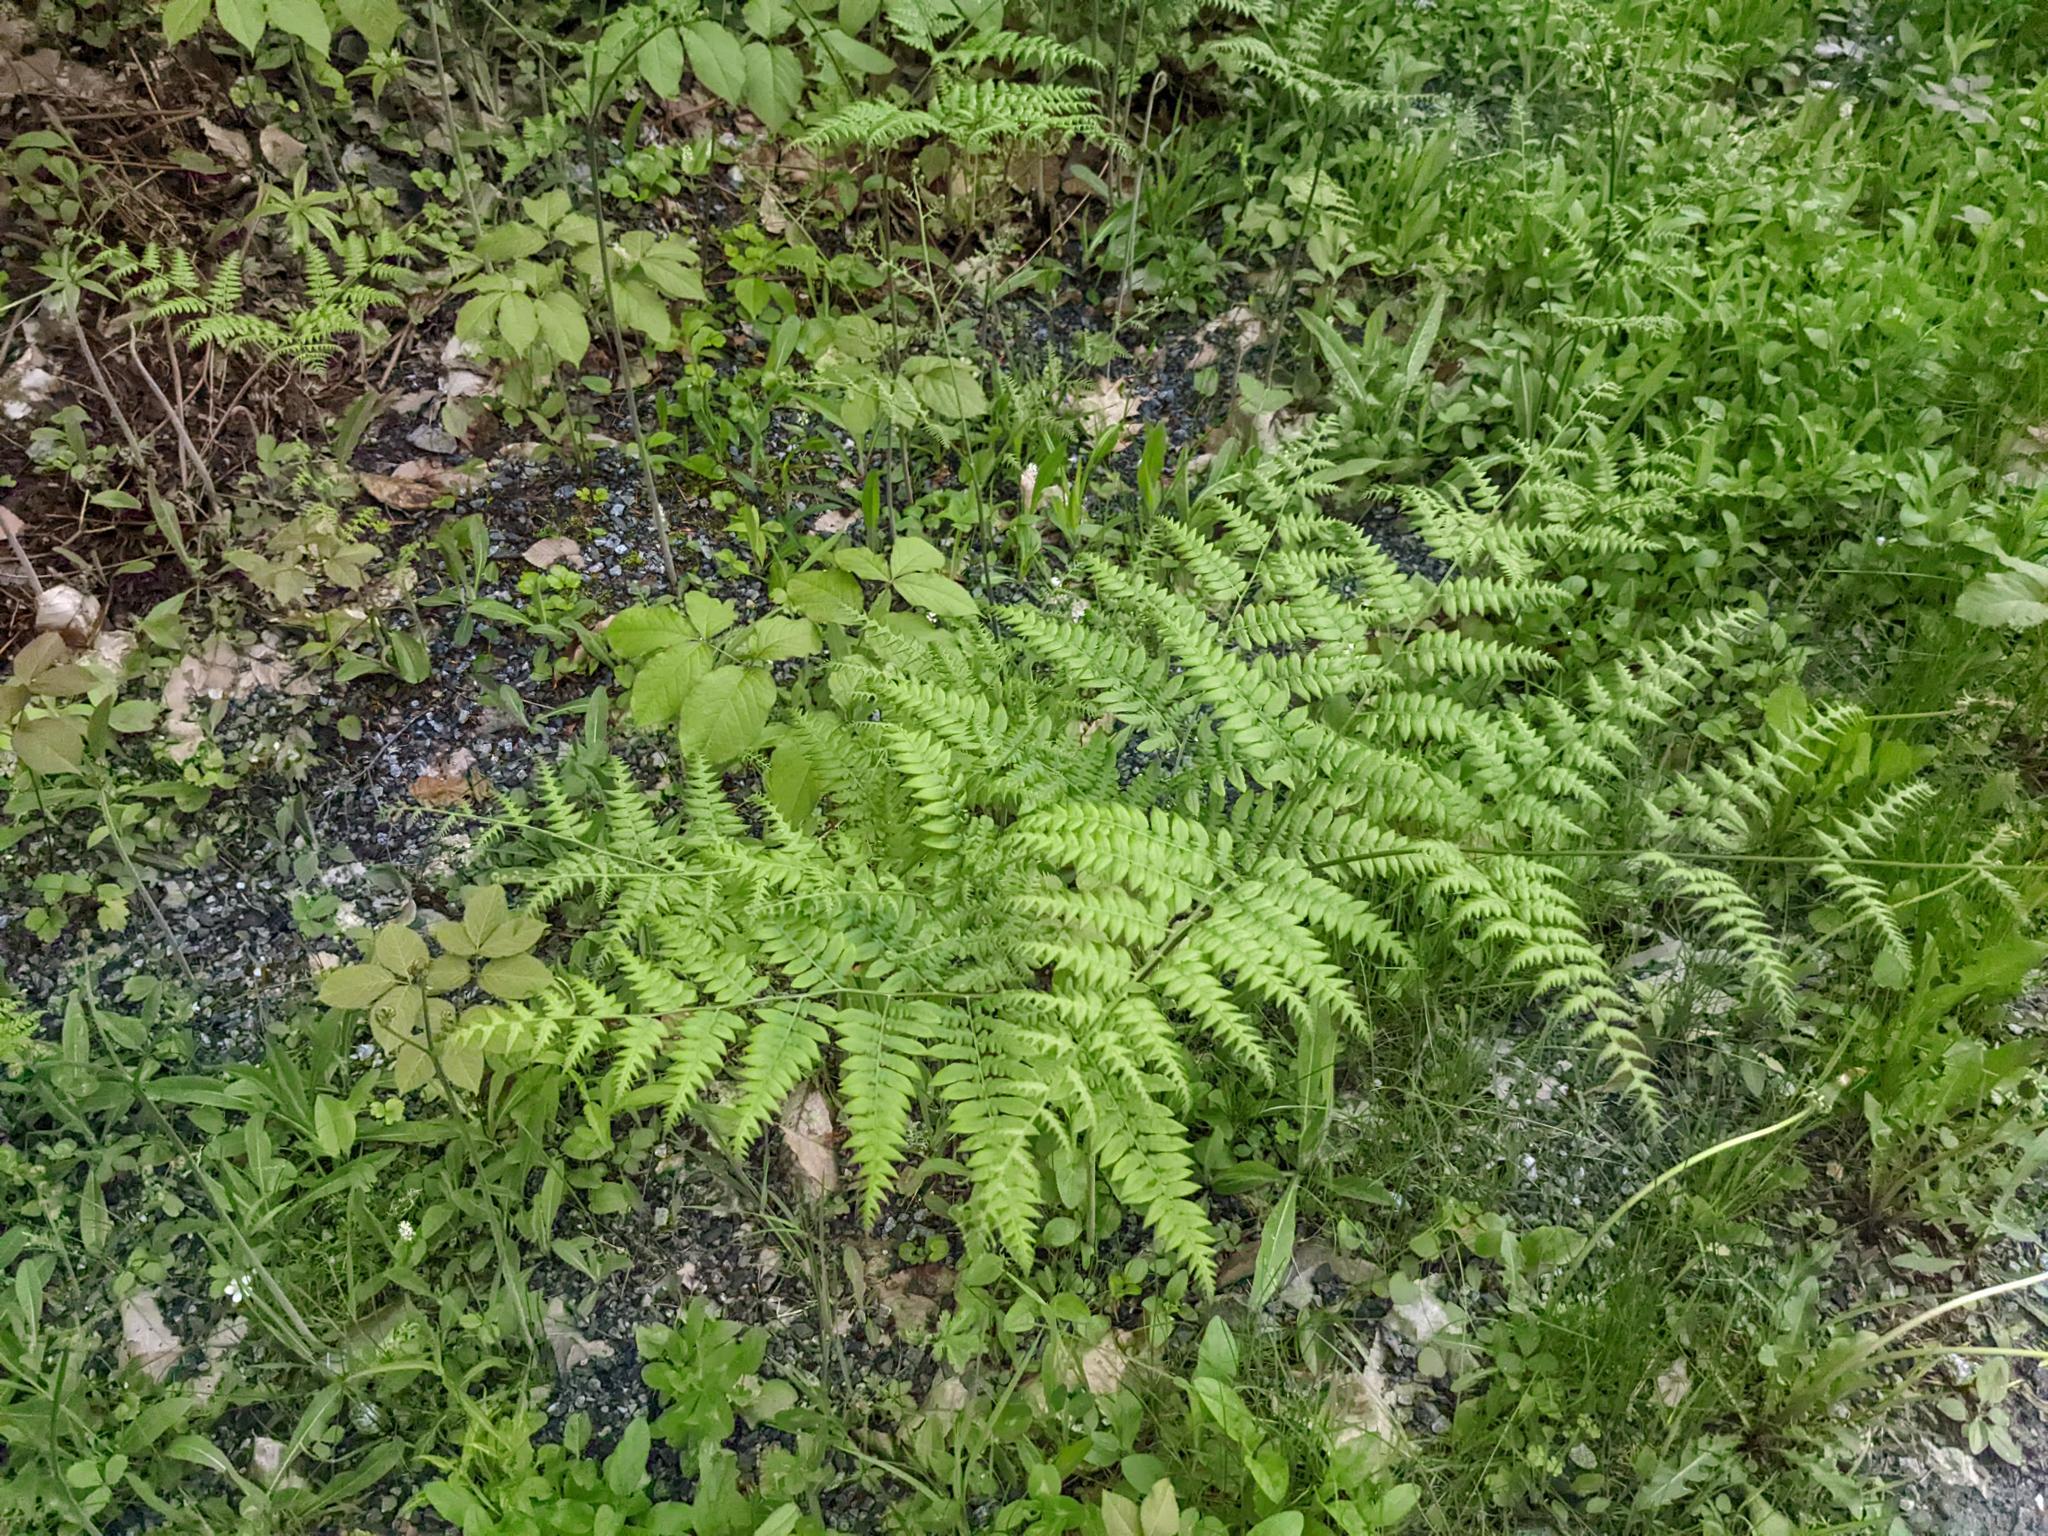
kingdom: Plantae
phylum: Tracheophyta
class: Polypodiopsida
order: Polypodiales
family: Dennstaedtiaceae
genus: Pteridium
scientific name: Pteridium aquilinum
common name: Bracken
